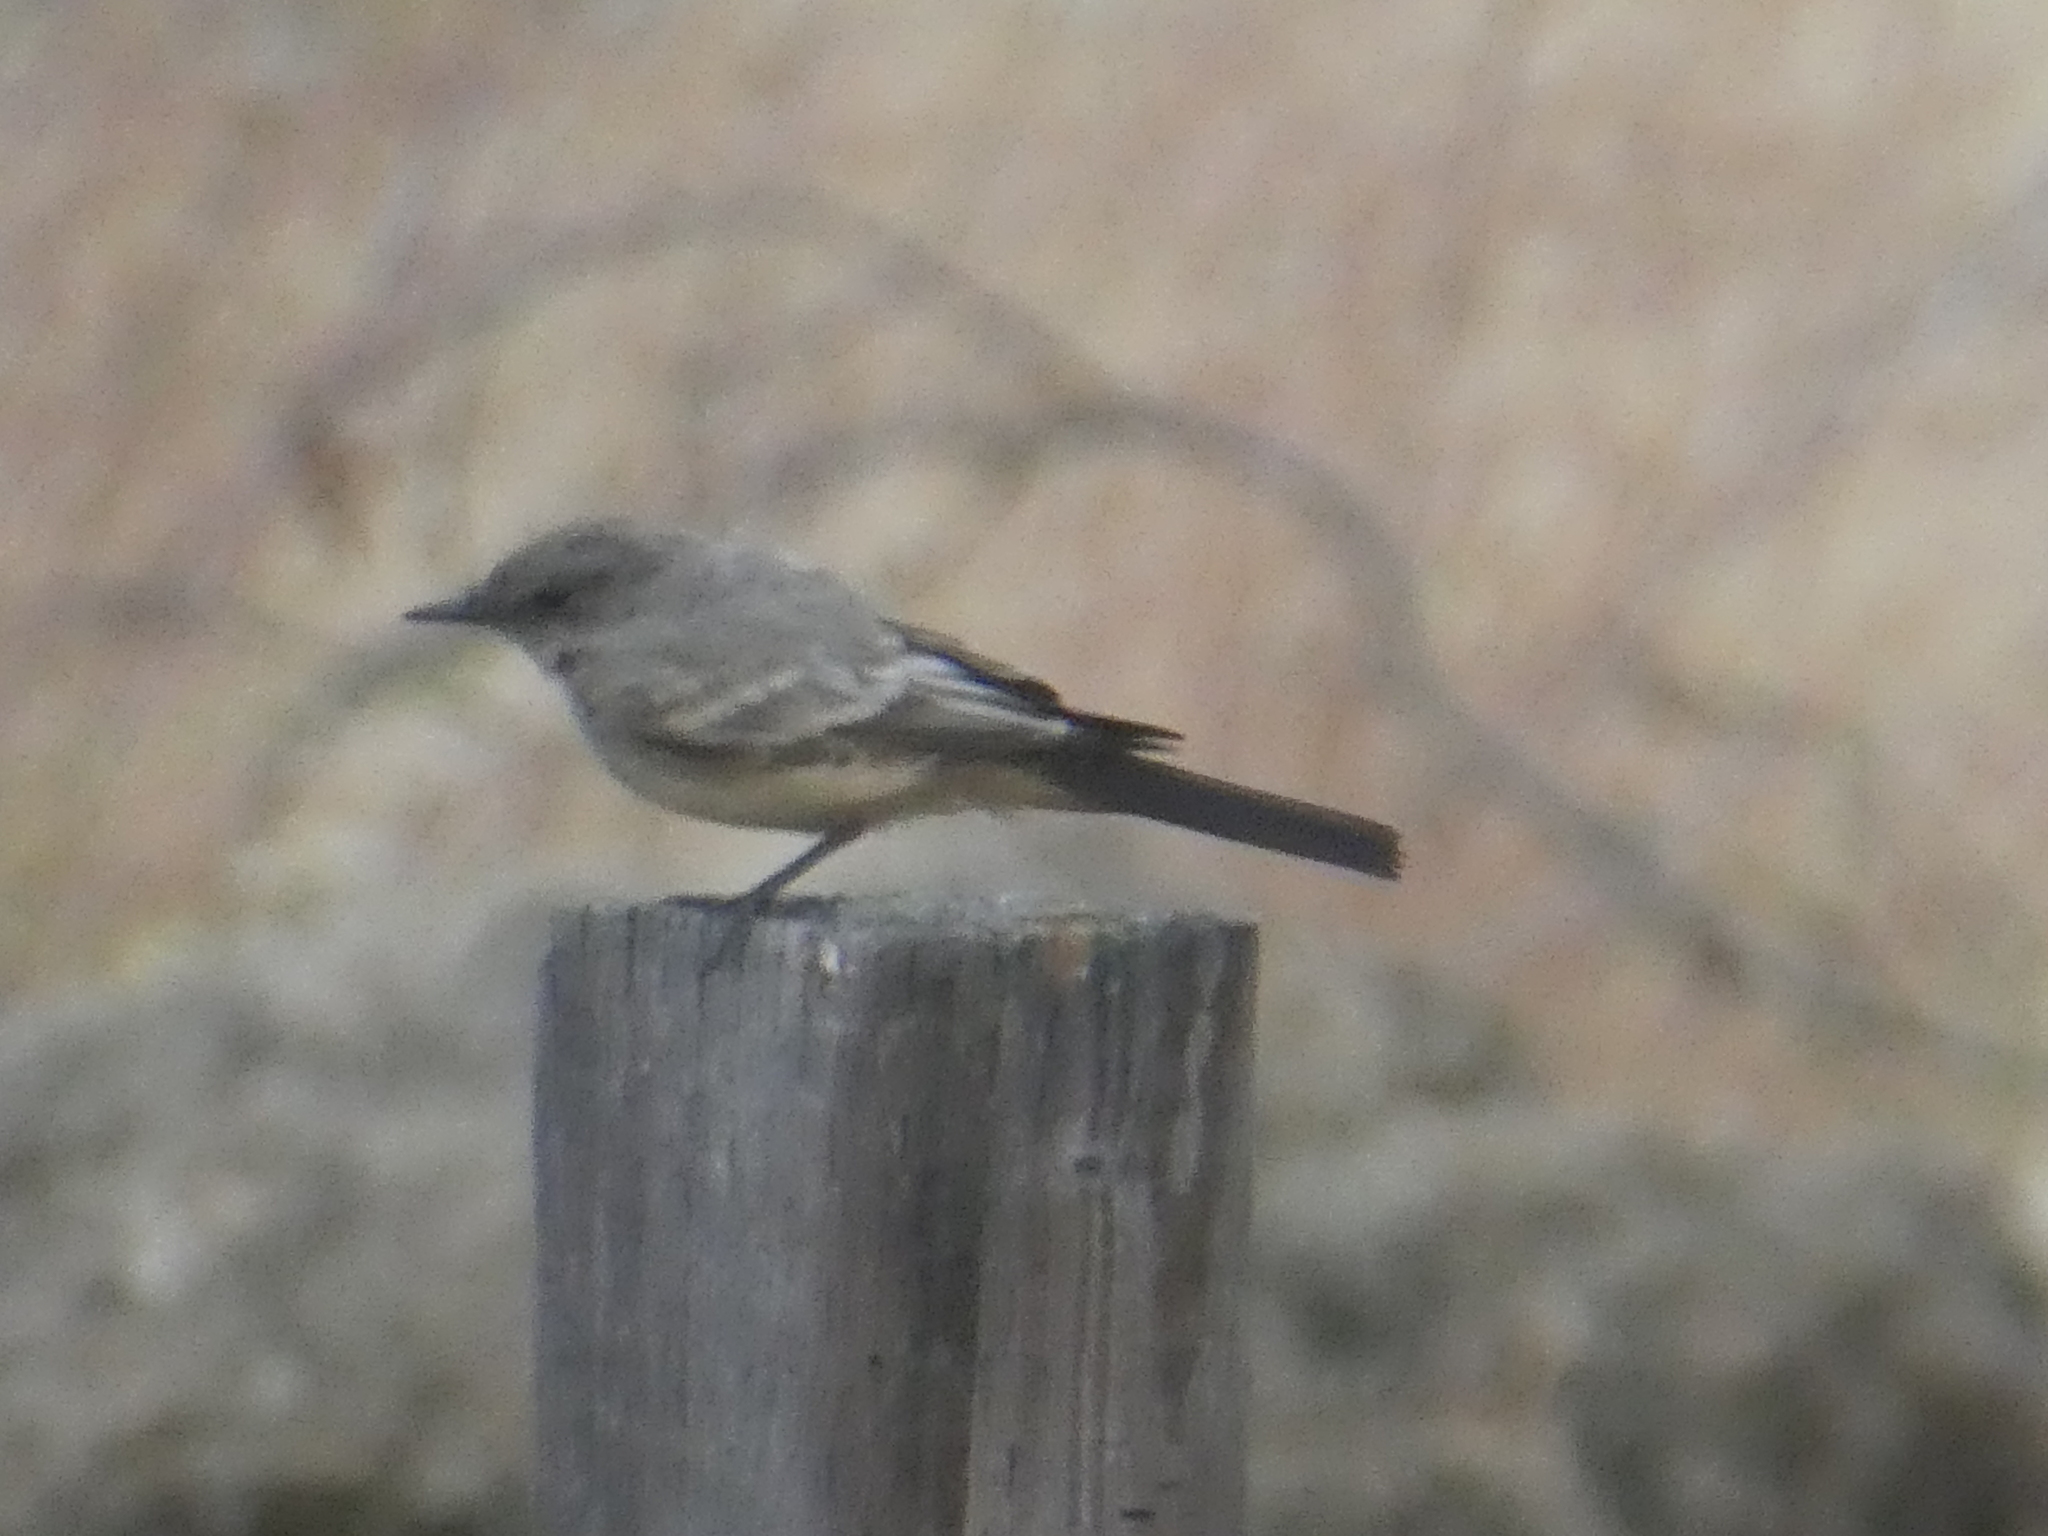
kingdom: Animalia
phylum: Chordata
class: Aves
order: Passeriformes
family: Tyrannidae
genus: Sayornis
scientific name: Sayornis saya
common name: Say's phoebe
